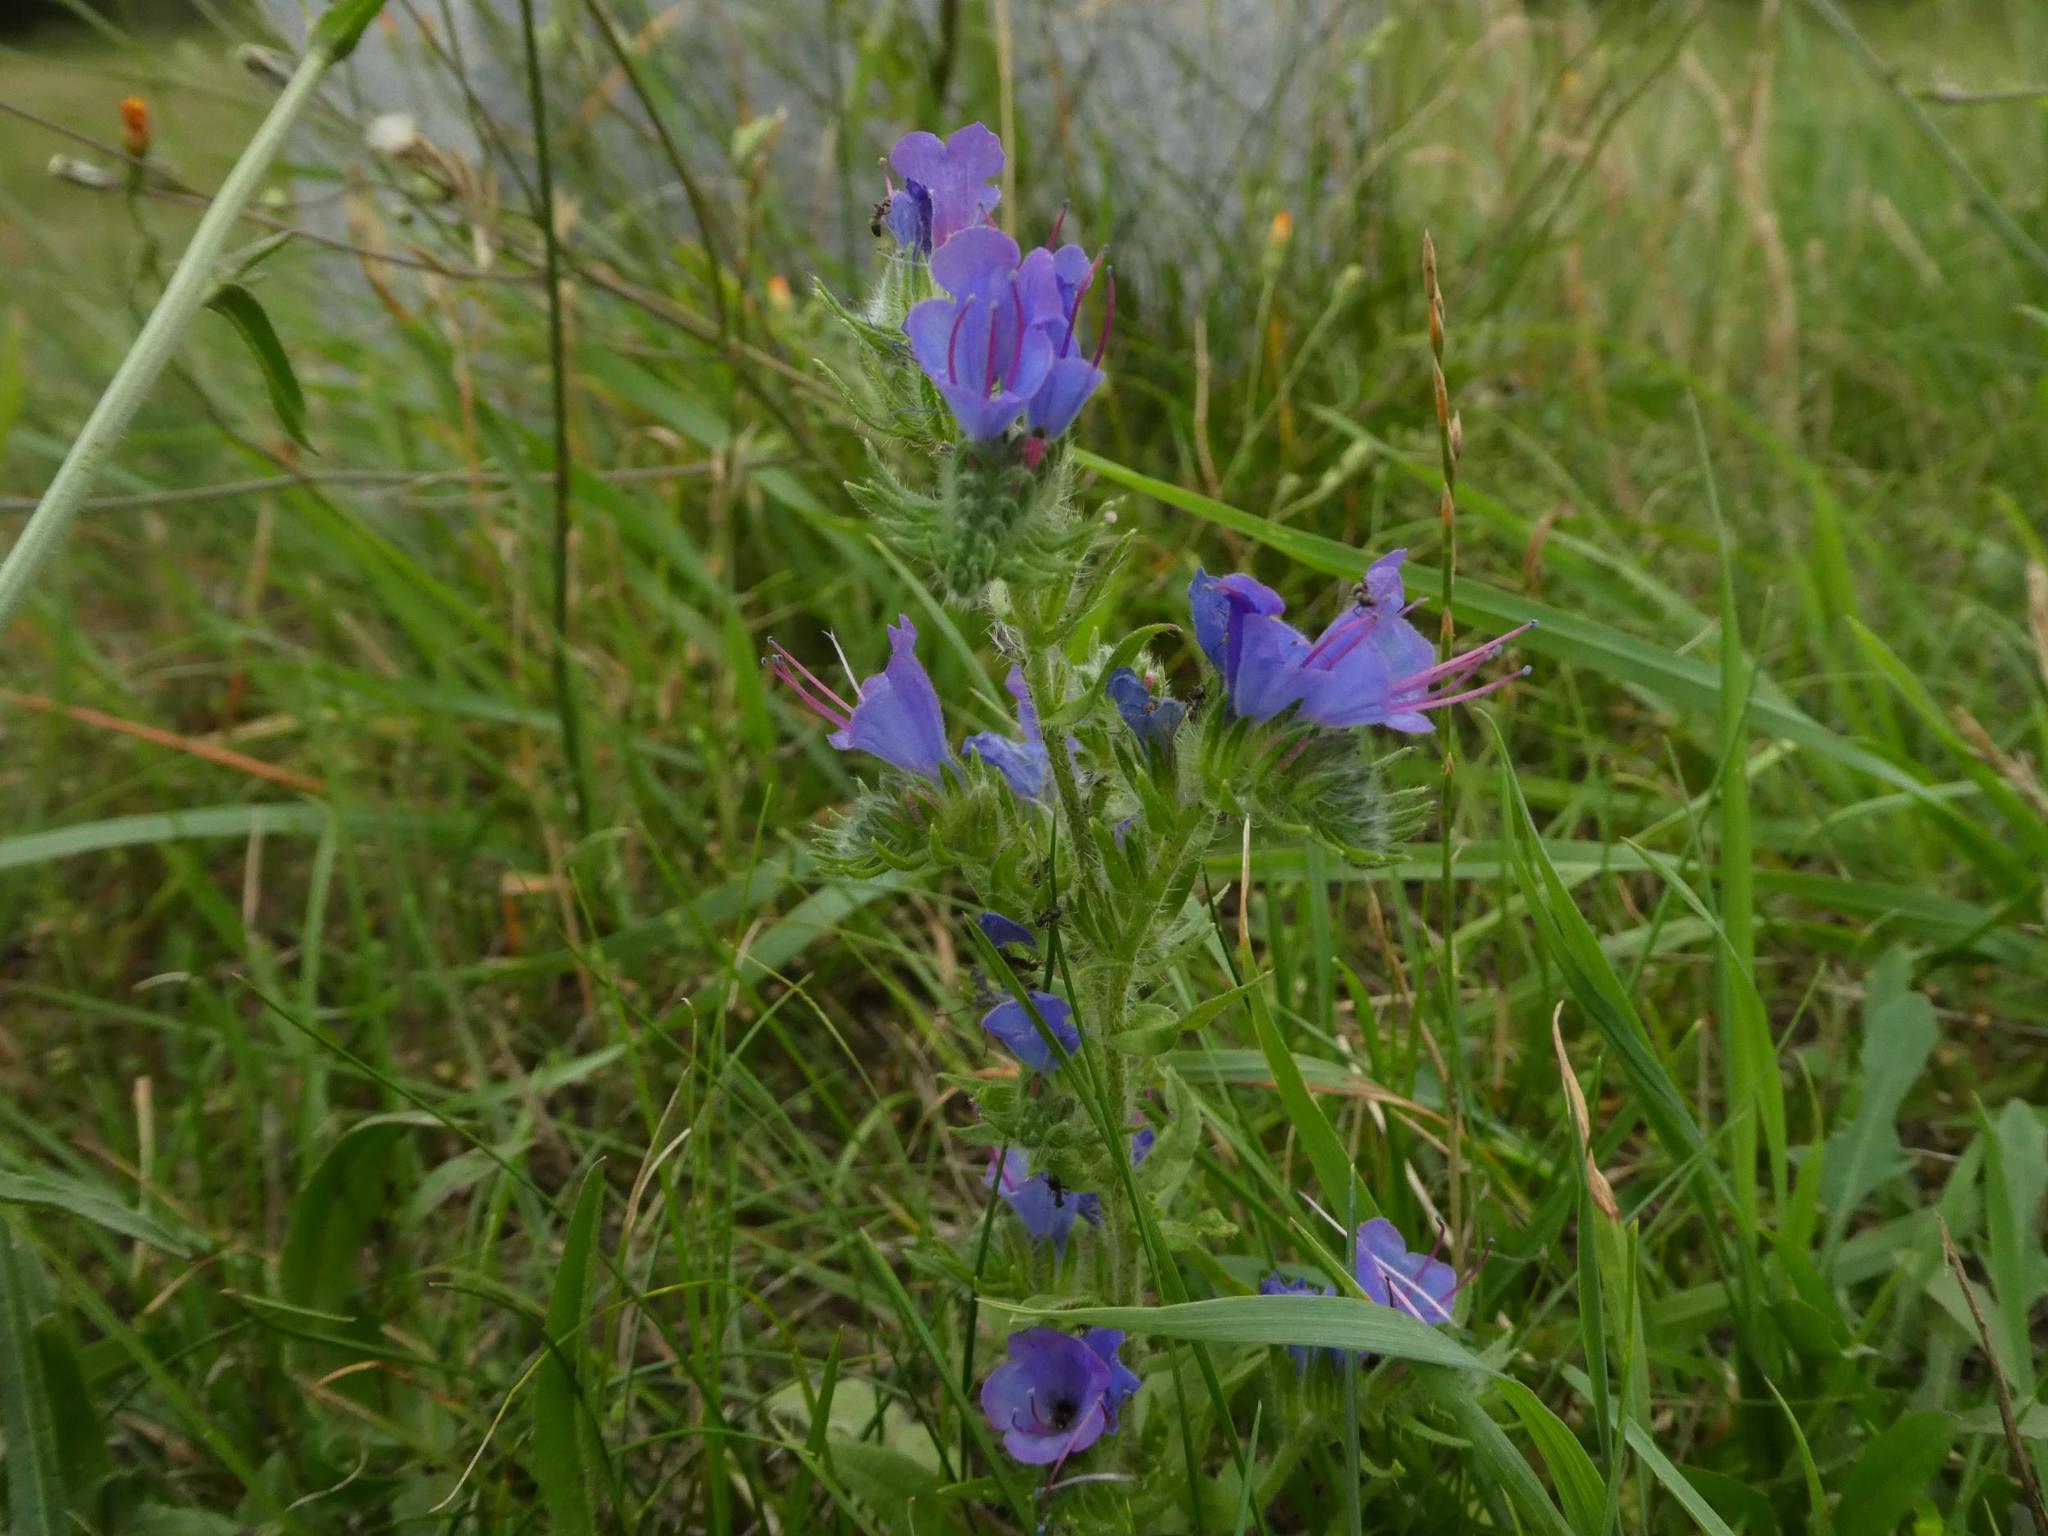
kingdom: Plantae
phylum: Tracheophyta
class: Magnoliopsida
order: Boraginales
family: Boraginaceae
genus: Echium
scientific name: Echium vulgare
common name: Common viper's bugloss
